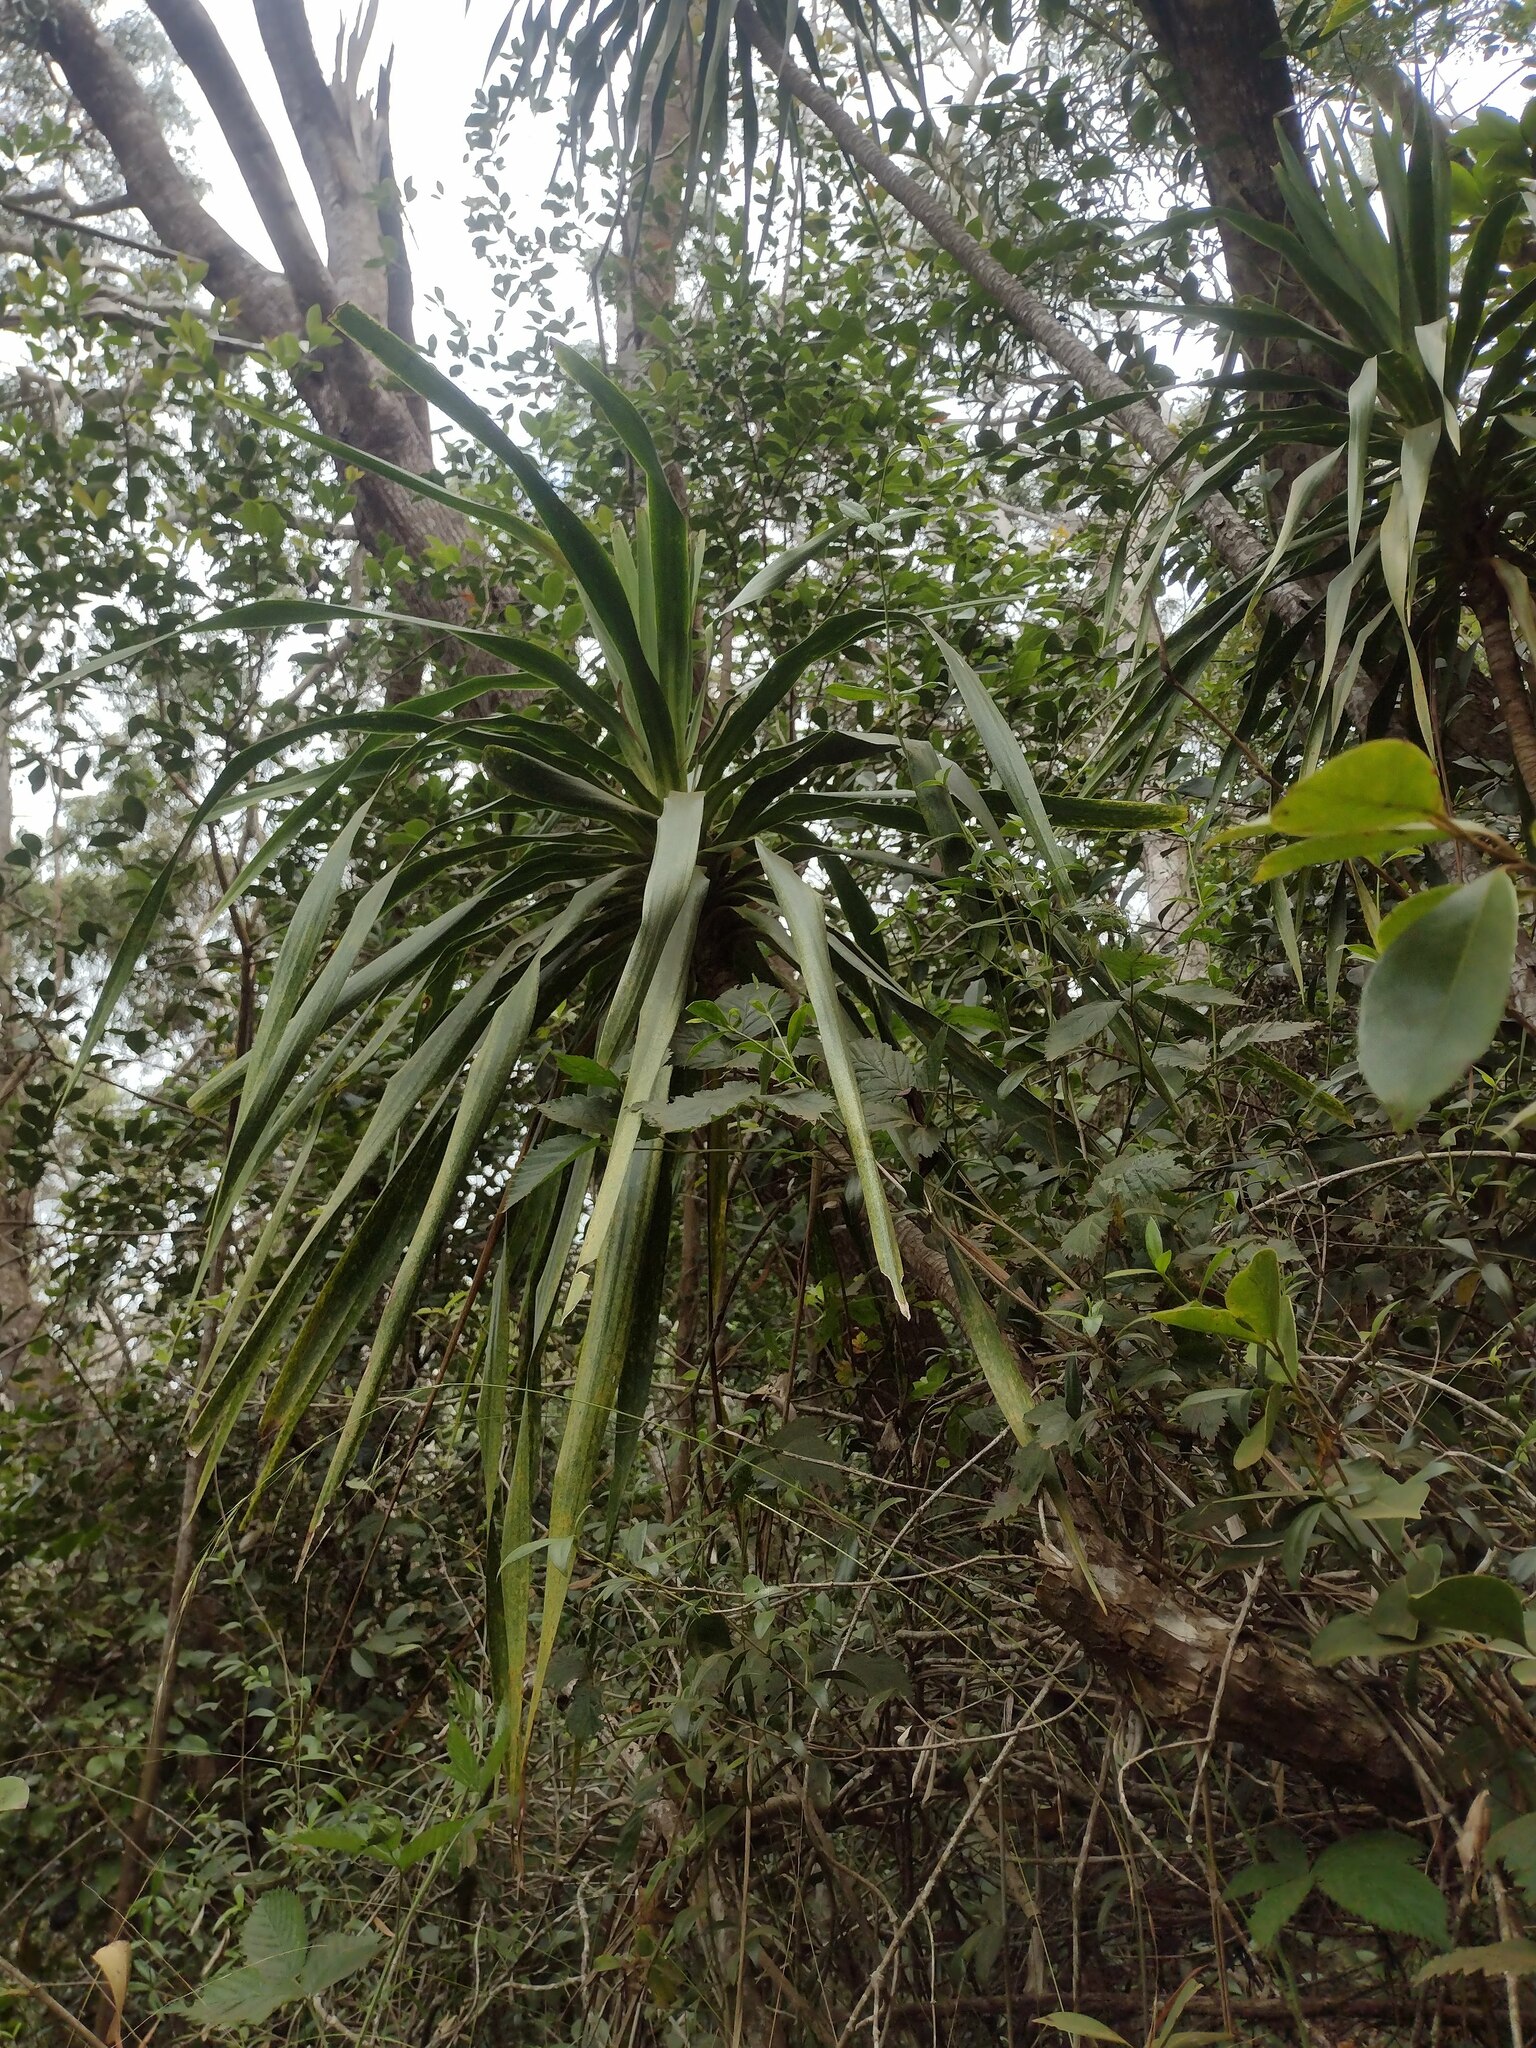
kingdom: Plantae
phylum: Tracheophyta
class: Liliopsida
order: Asparagales
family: Asparagaceae
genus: Dracaena
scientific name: Dracaena aurea
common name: Golden dracaena
